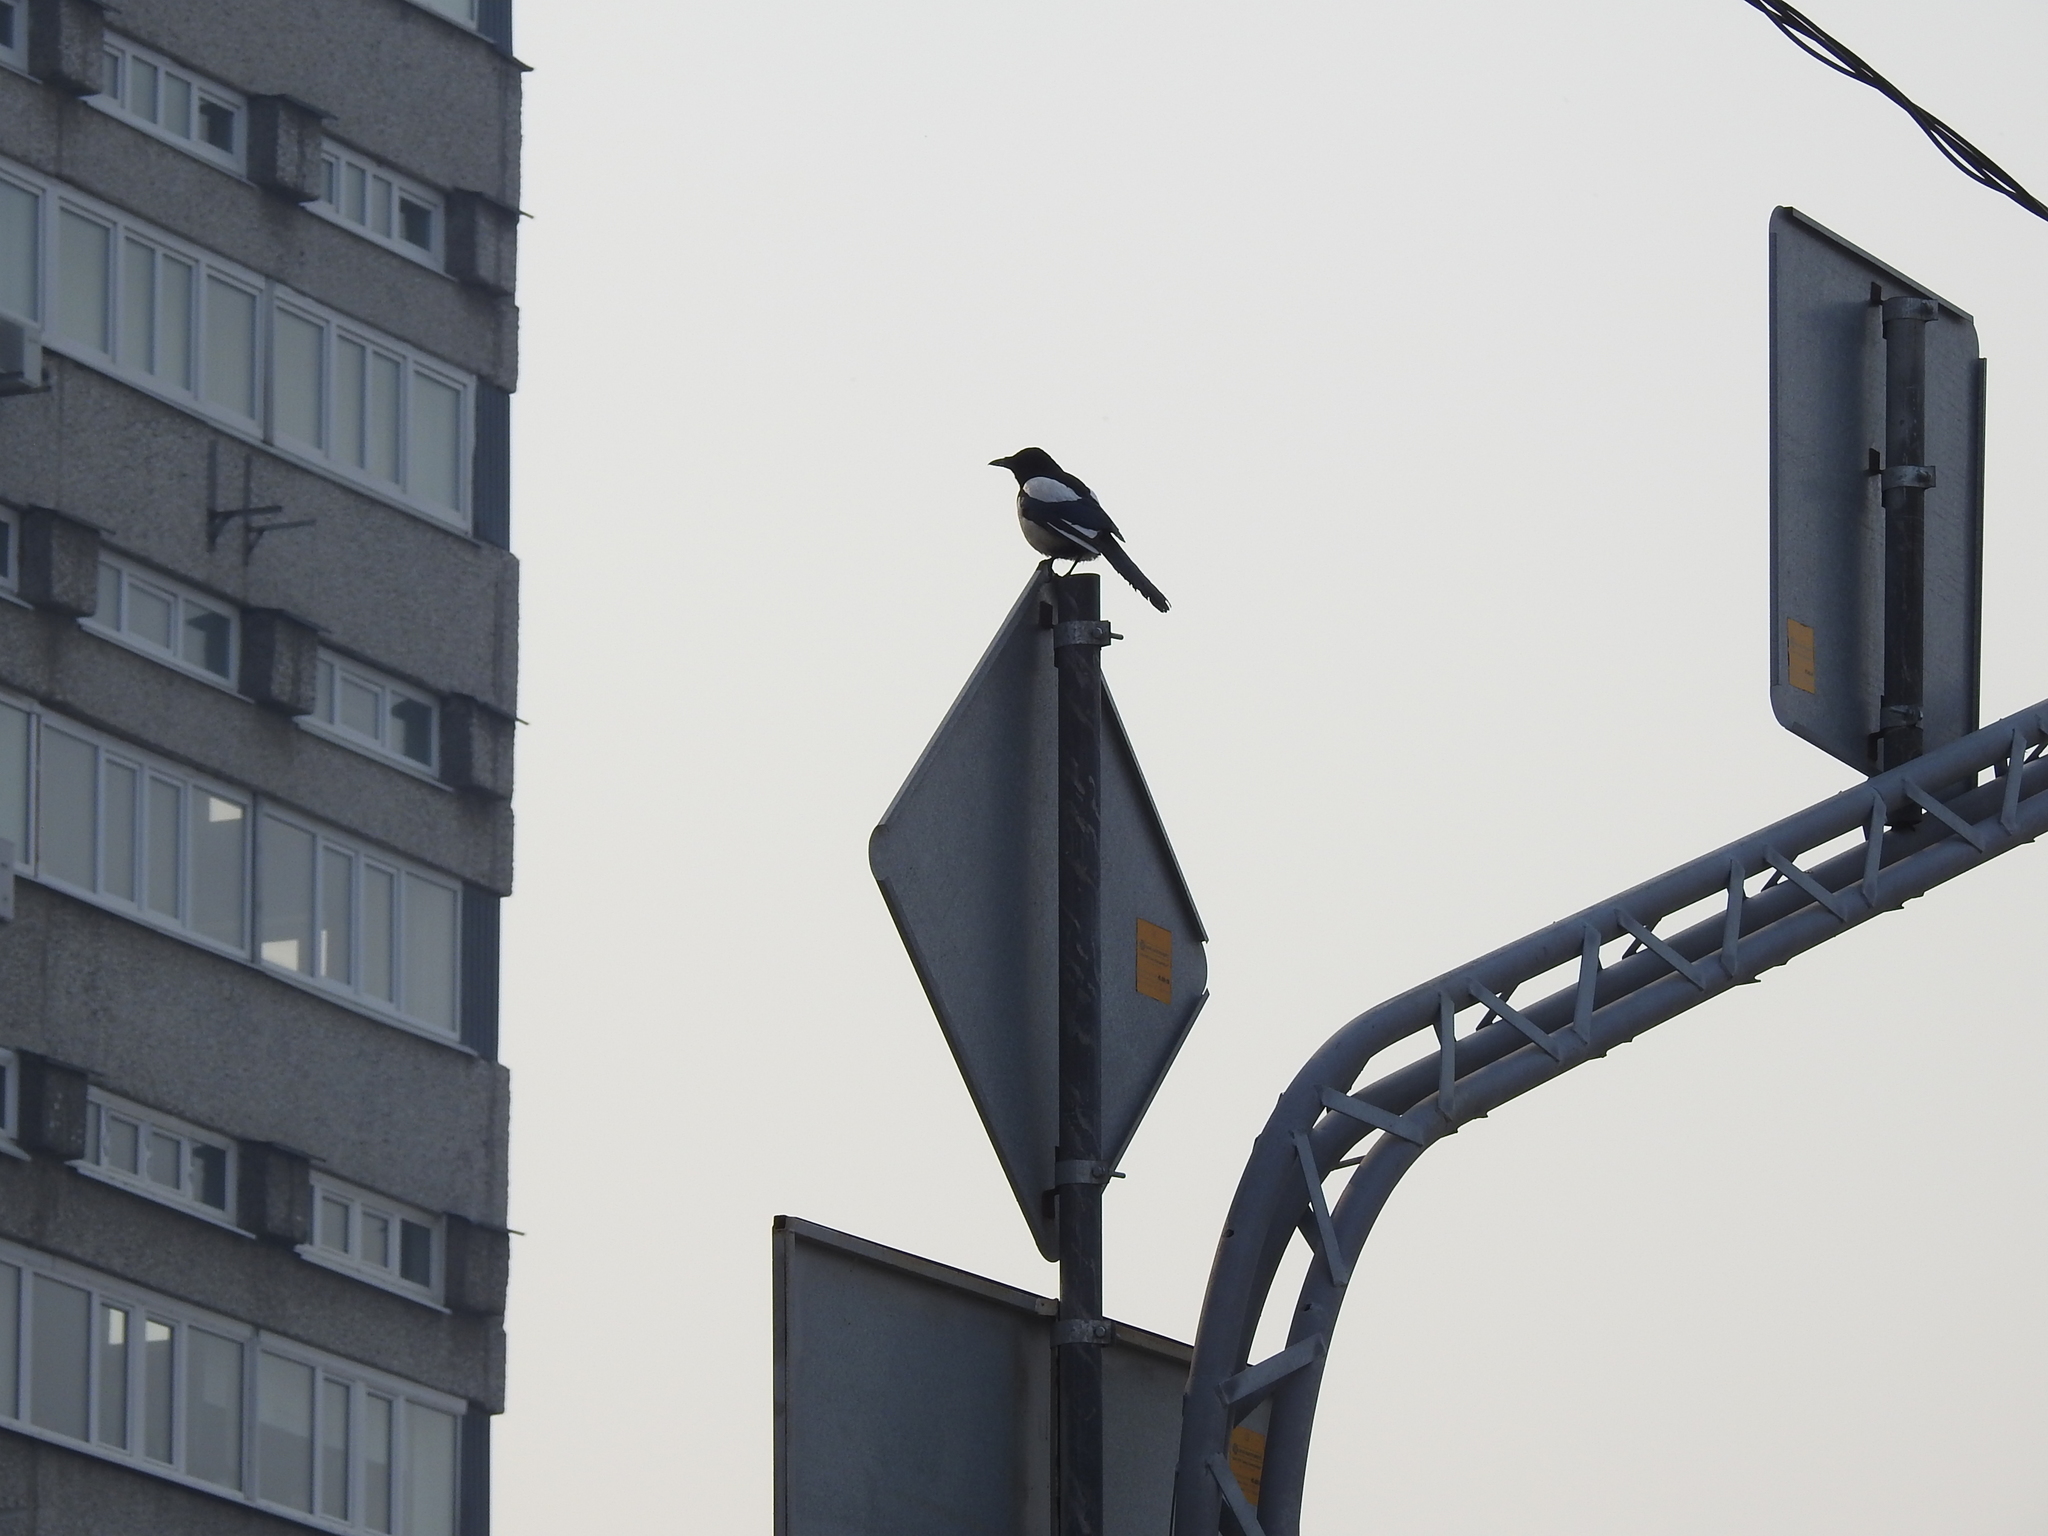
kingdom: Animalia
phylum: Chordata
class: Aves
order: Passeriformes
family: Corvidae
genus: Pica
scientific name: Pica pica
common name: Eurasian magpie
